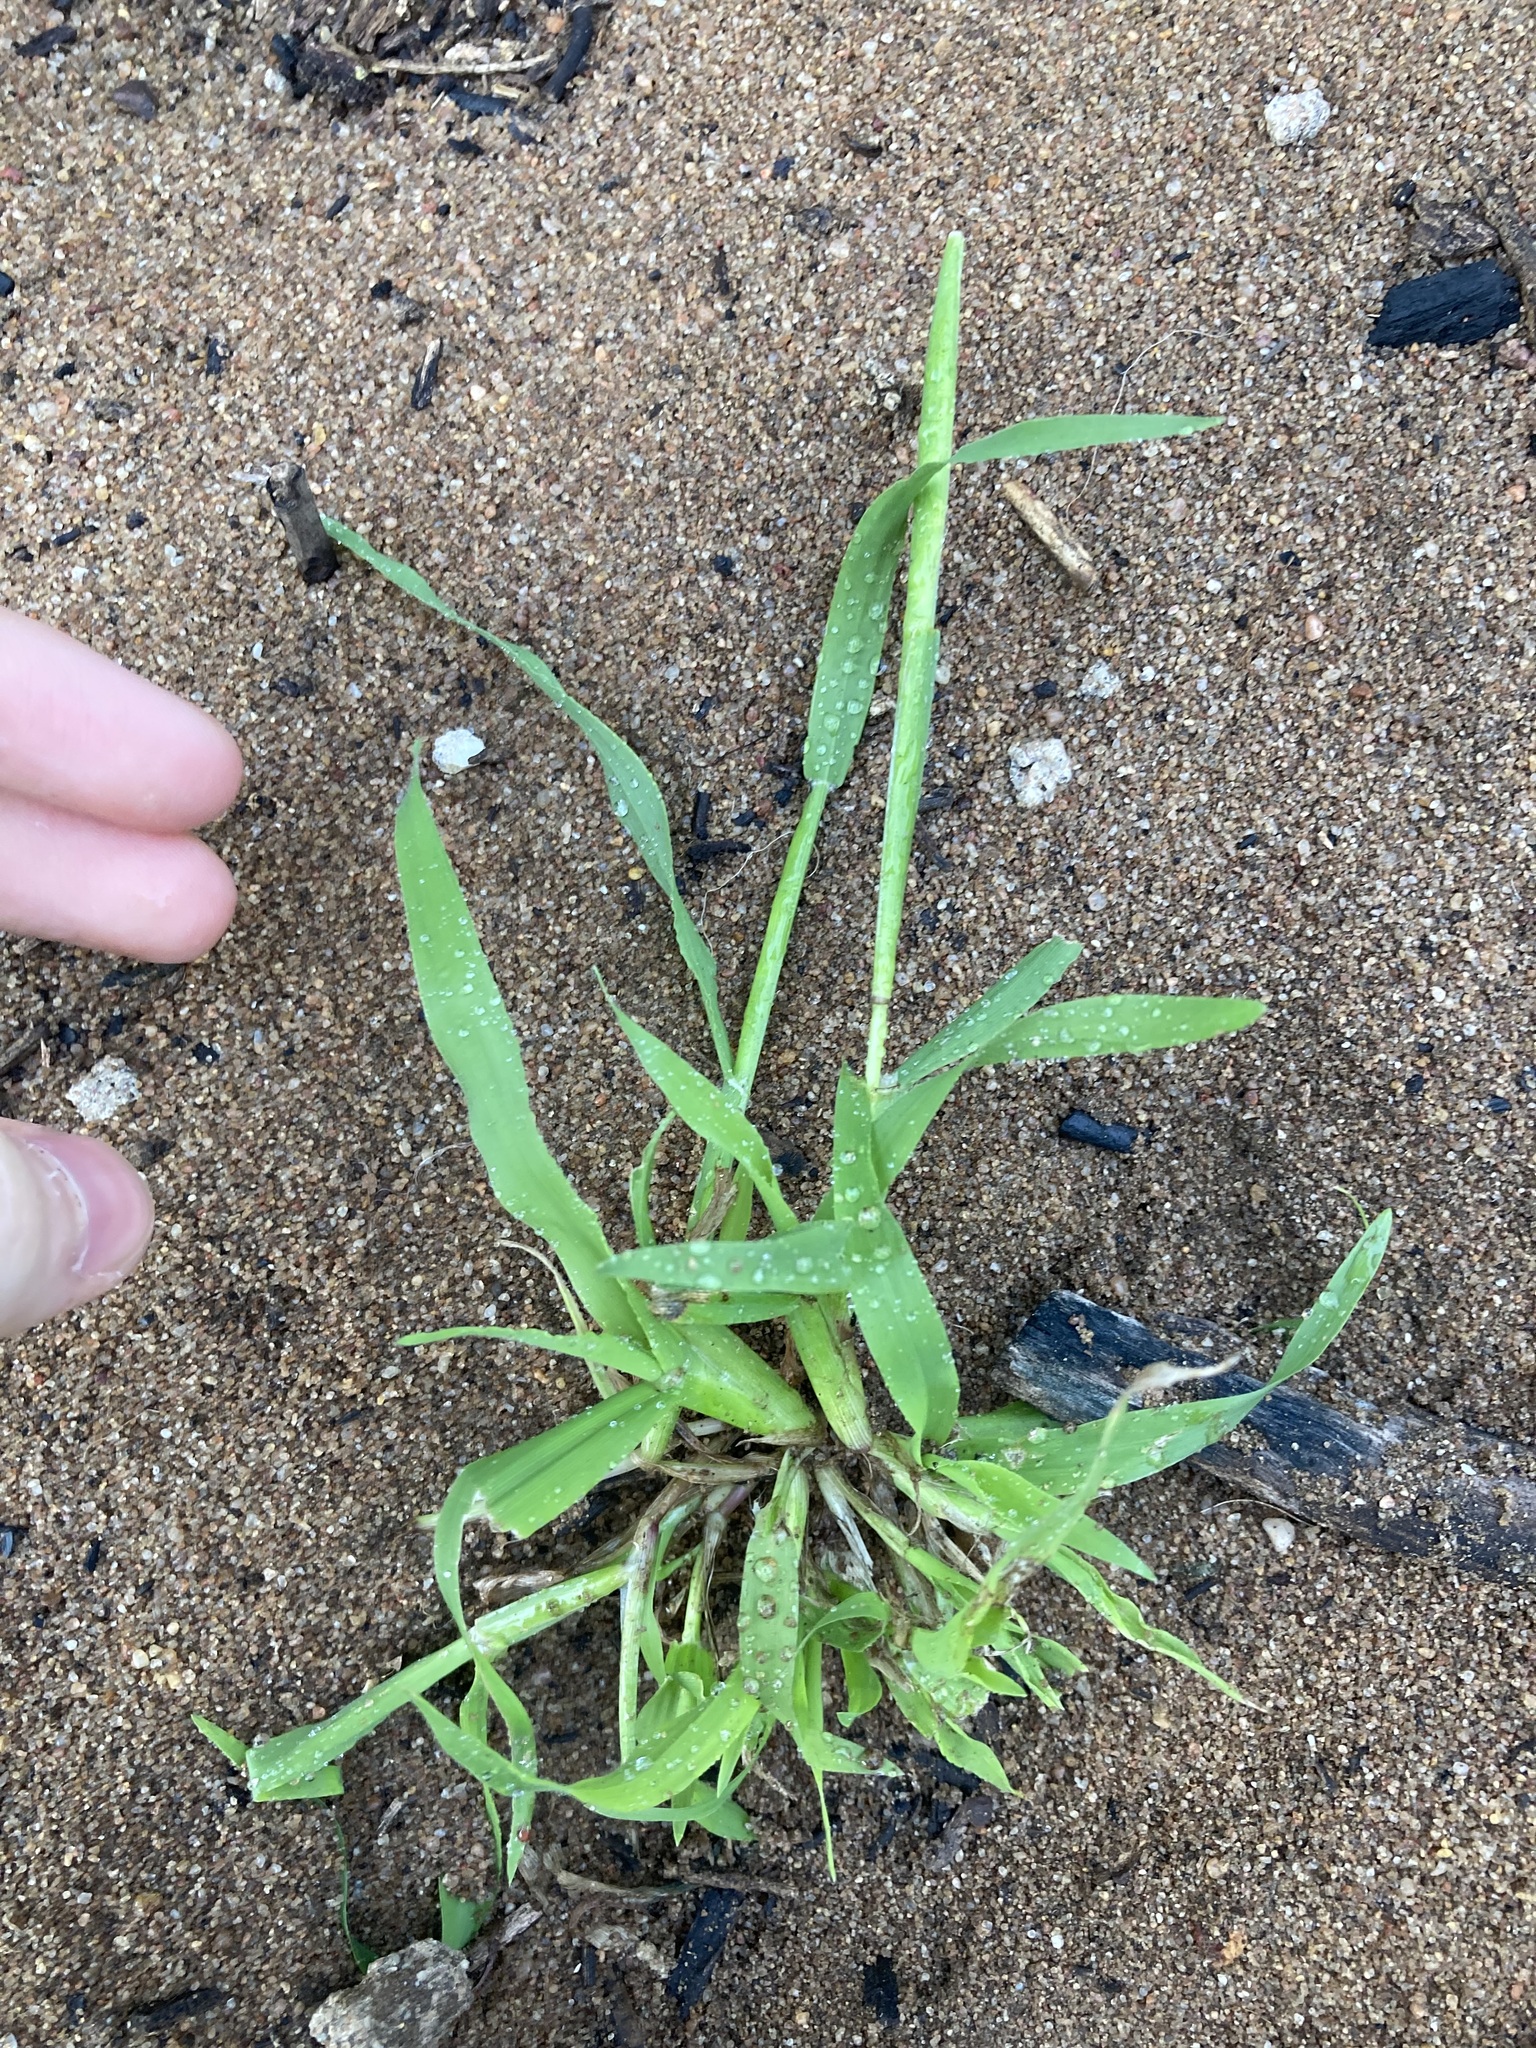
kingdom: Plantae
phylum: Tracheophyta
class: Liliopsida
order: Poales
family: Poaceae
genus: Ehrharta
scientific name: Ehrharta longiflora
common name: Longflowered veldtgrass
